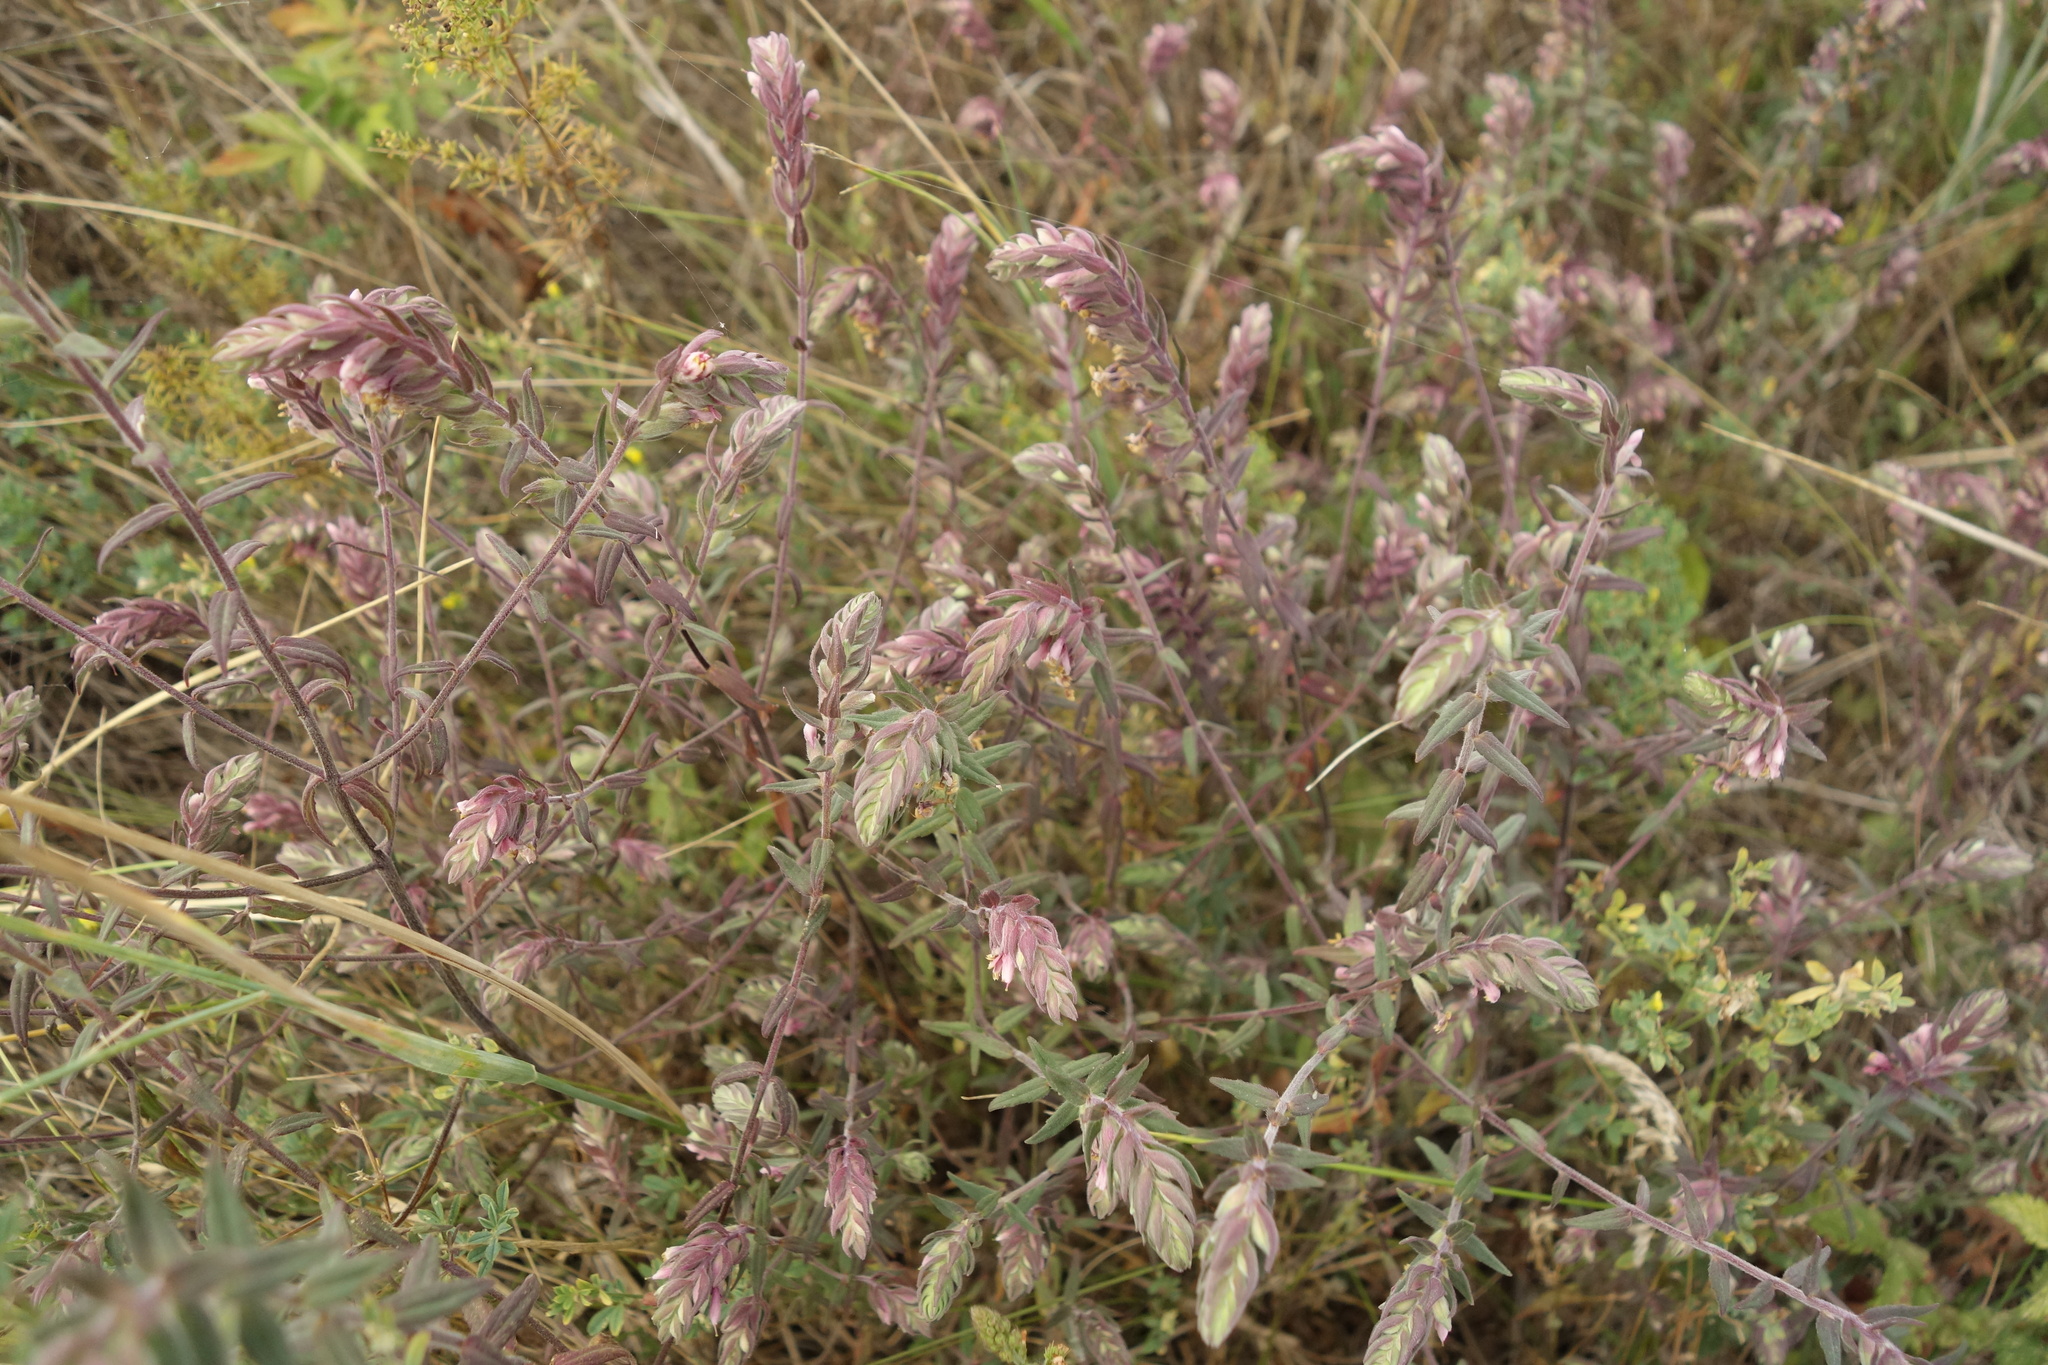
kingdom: Plantae
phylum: Tracheophyta
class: Magnoliopsida
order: Lamiales
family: Orobanchaceae
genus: Odontites
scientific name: Odontites vulgaris
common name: Broomrape
